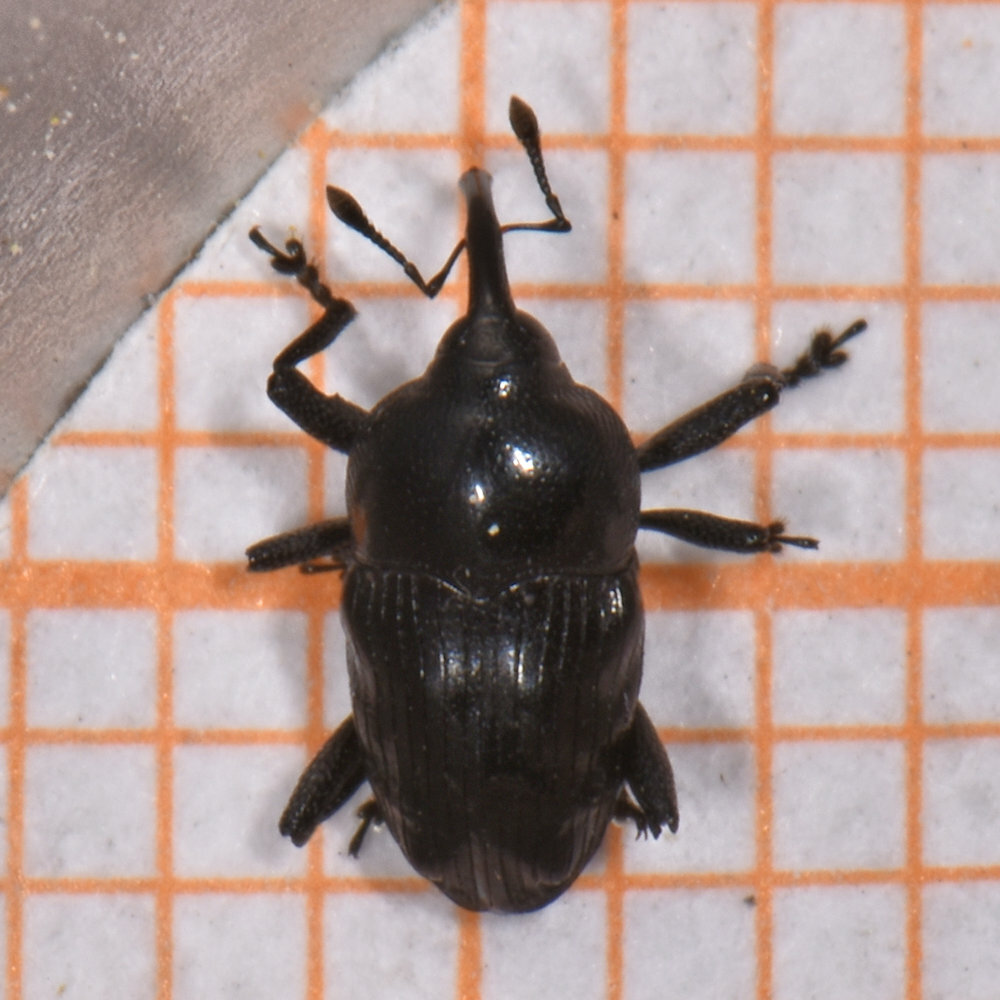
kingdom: Animalia
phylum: Arthropoda
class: Insecta
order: Coleoptera
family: Curculionidae
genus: Madarellus
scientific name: Madarellus undulatus
